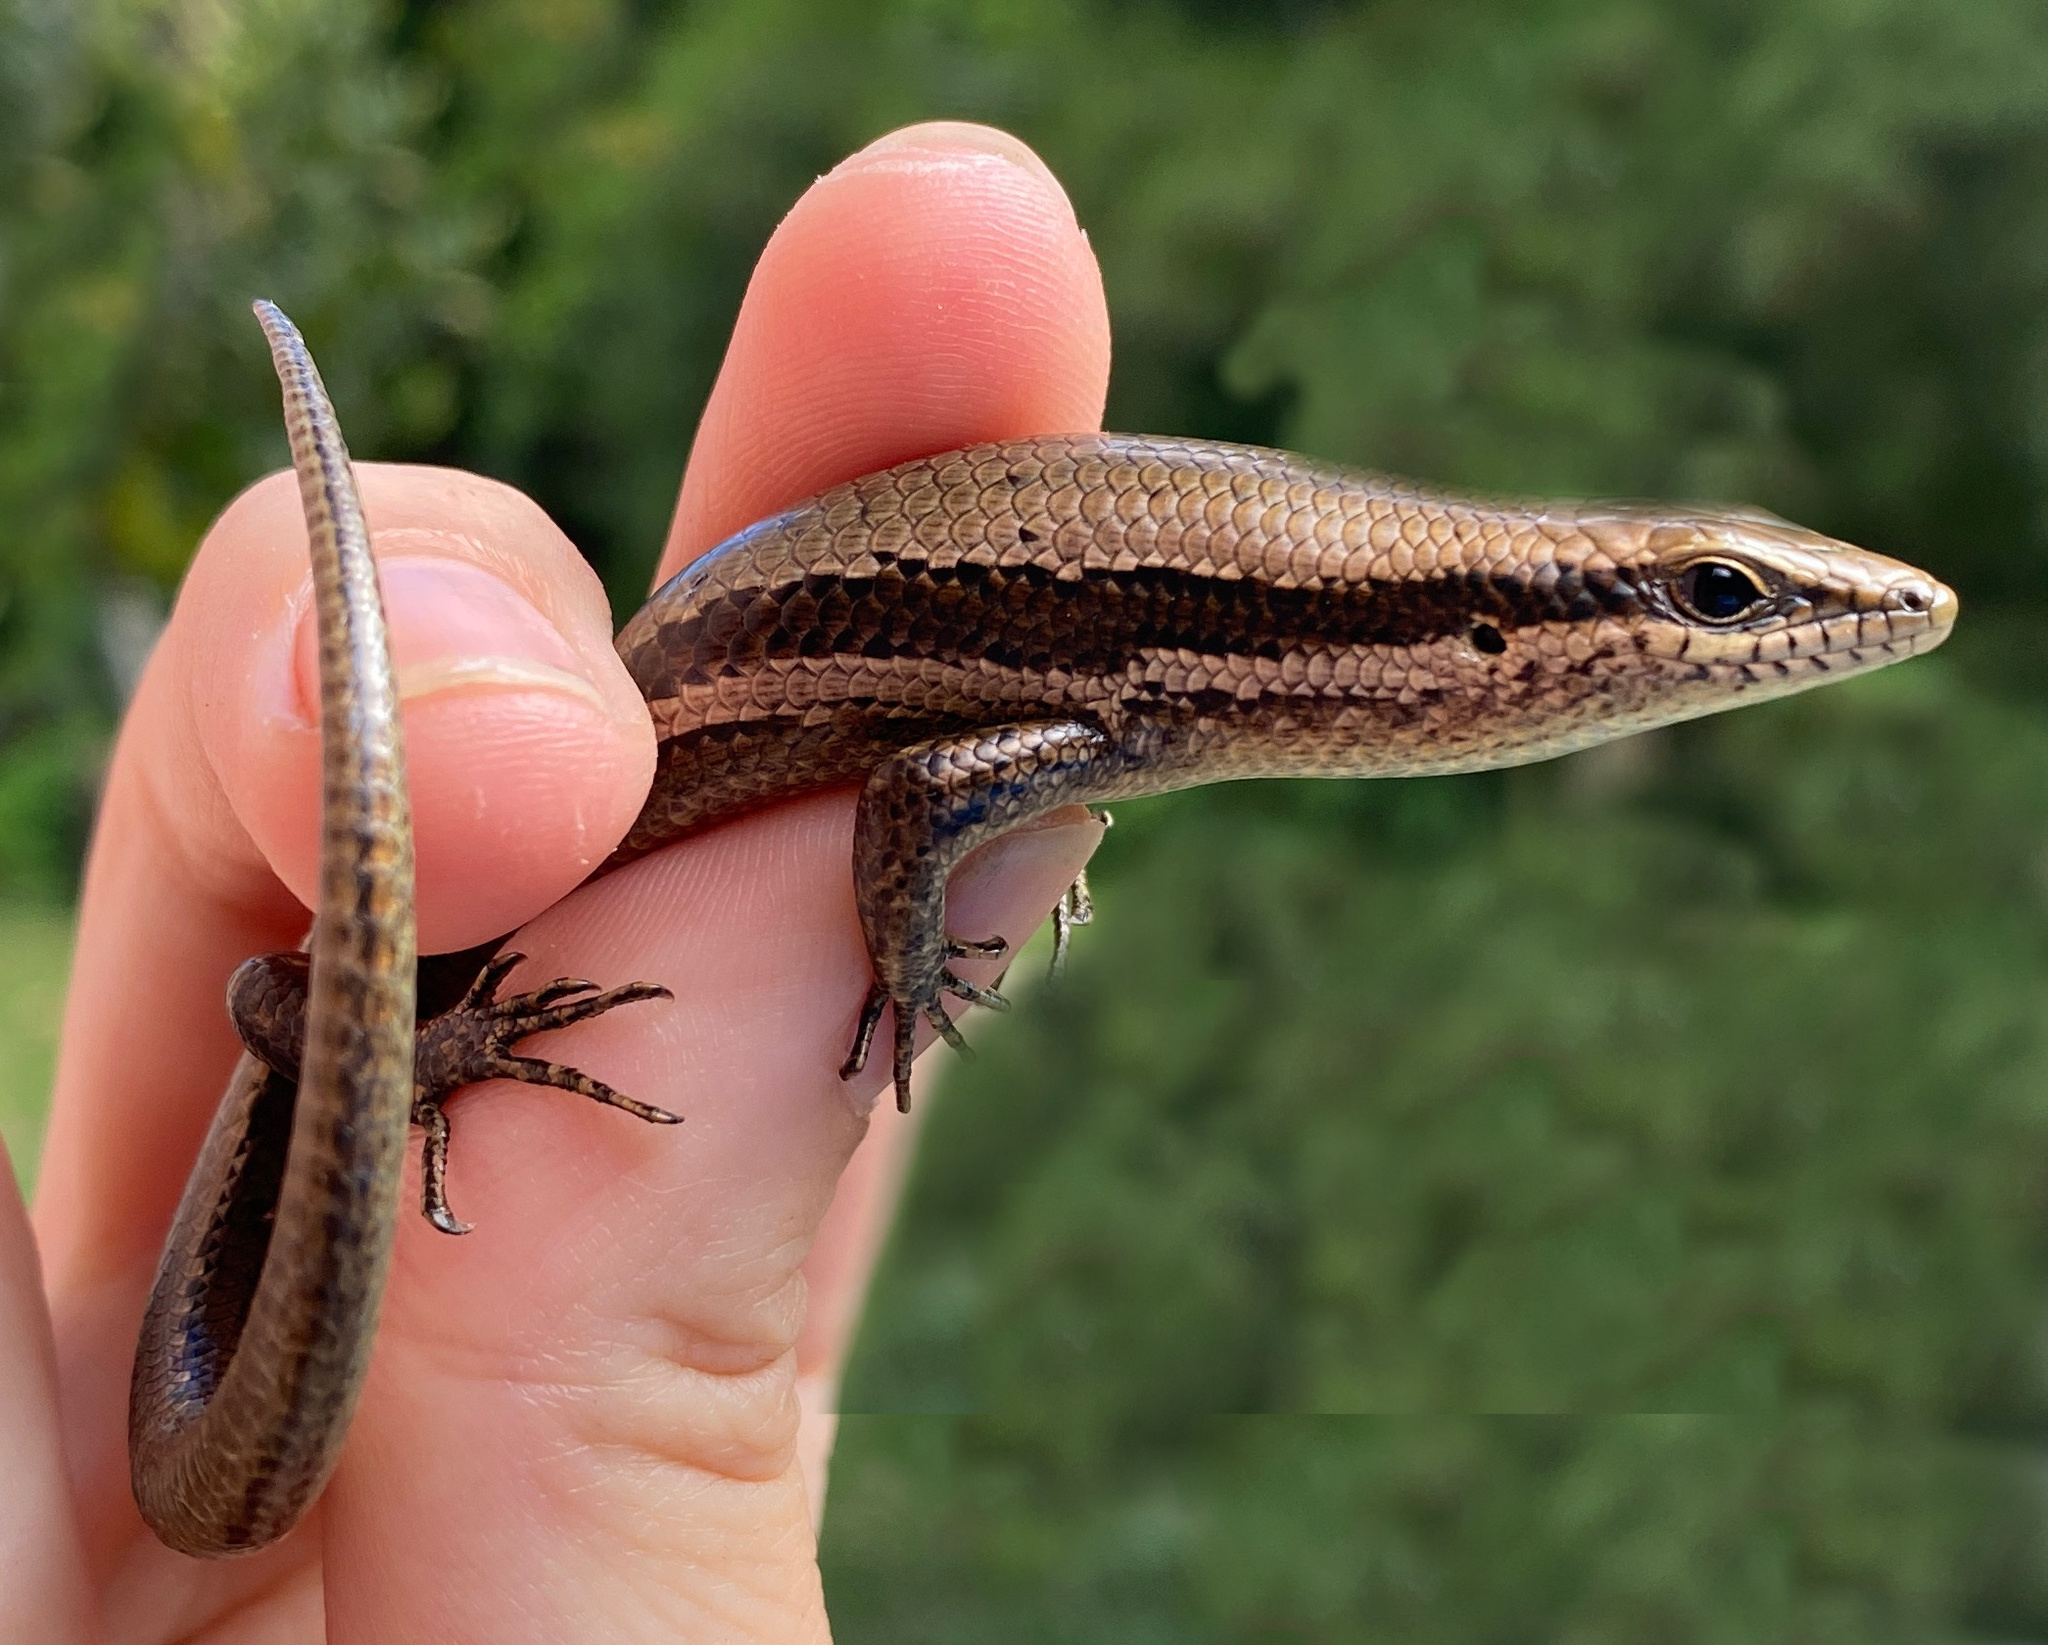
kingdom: Animalia
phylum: Chordata
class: Squamata
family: Scincidae
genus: Copeoglossum
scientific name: Copeoglossum aurae
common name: Greater windward skink
